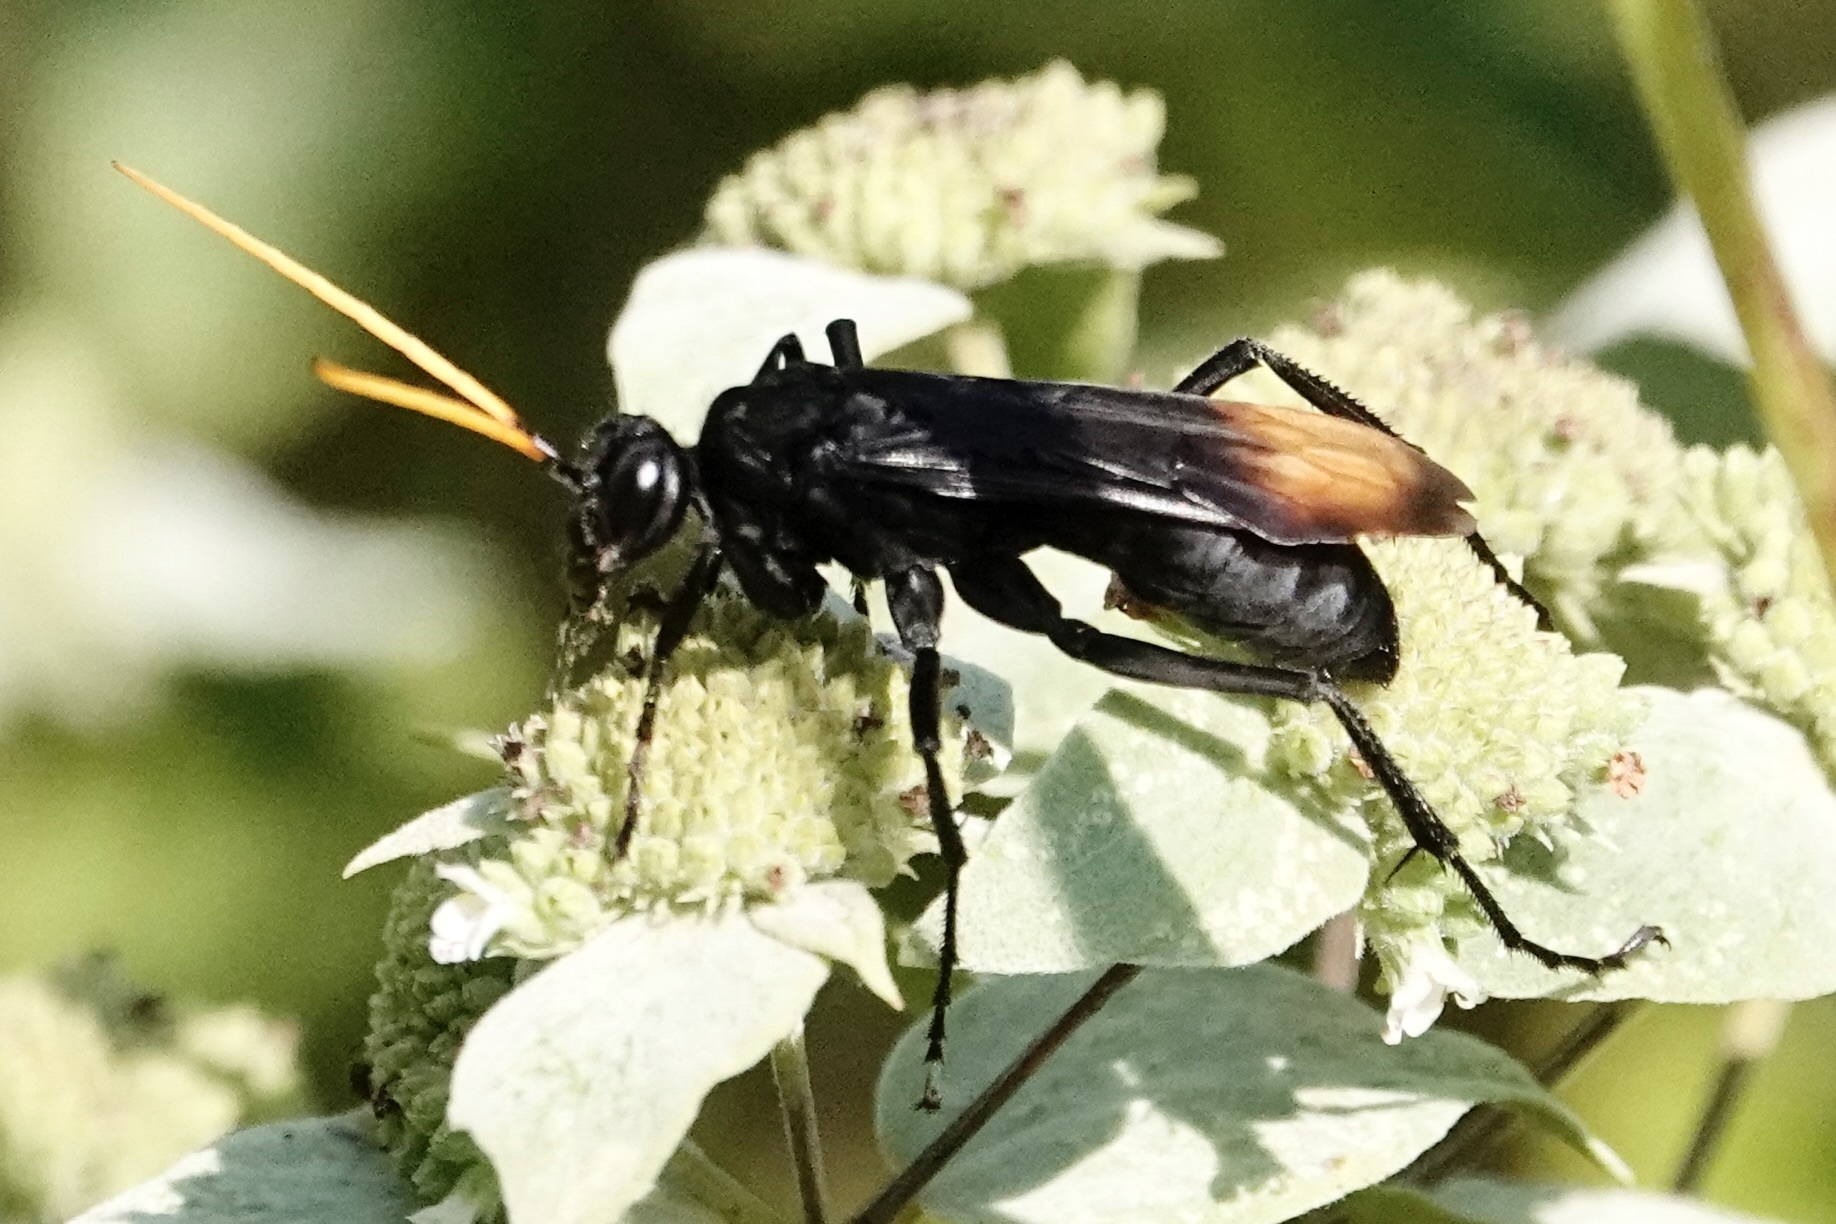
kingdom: Animalia
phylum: Arthropoda
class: Insecta
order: Hymenoptera
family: Pompilidae
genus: Entypus
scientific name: Entypus unifasciatus
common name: Eastern tawny-horned spider wasp
